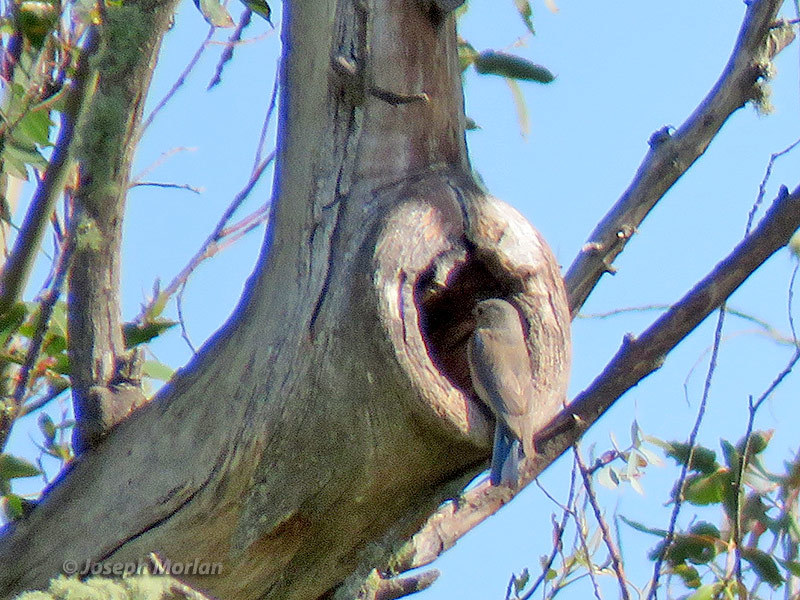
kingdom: Animalia
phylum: Chordata
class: Aves
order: Passeriformes
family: Turdidae
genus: Sialia
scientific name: Sialia mexicana
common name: Western bluebird
